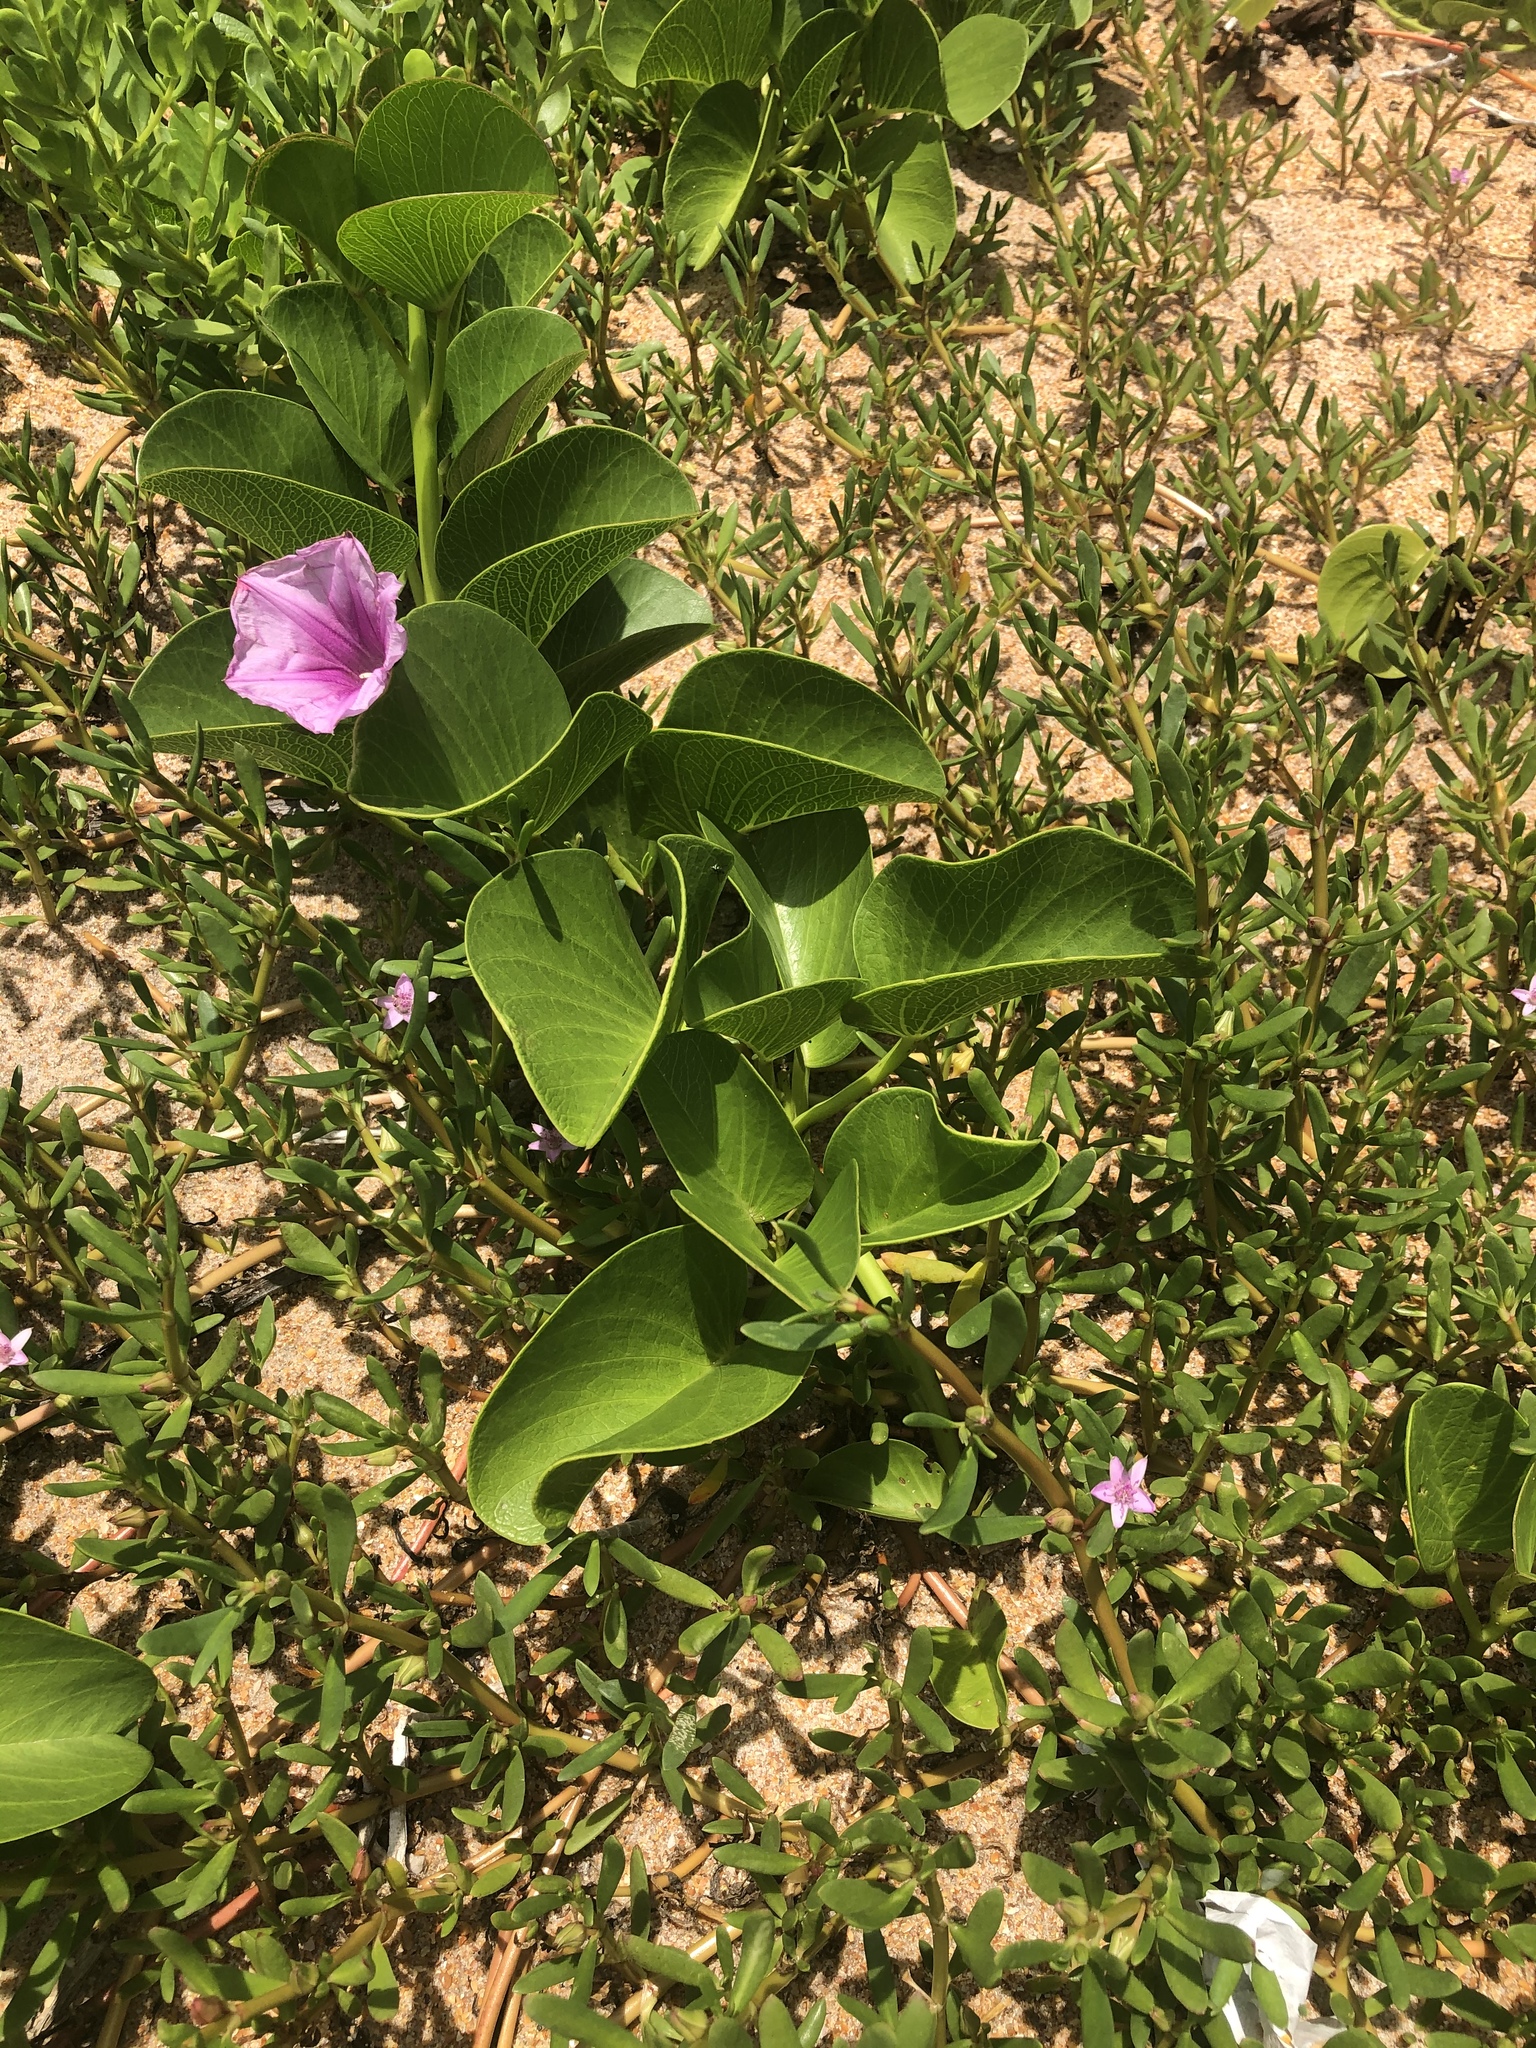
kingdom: Plantae
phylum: Tracheophyta
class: Magnoliopsida
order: Solanales
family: Convolvulaceae
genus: Ipomoea
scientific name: Ipomoea pes-caprae
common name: Beach morning glory
